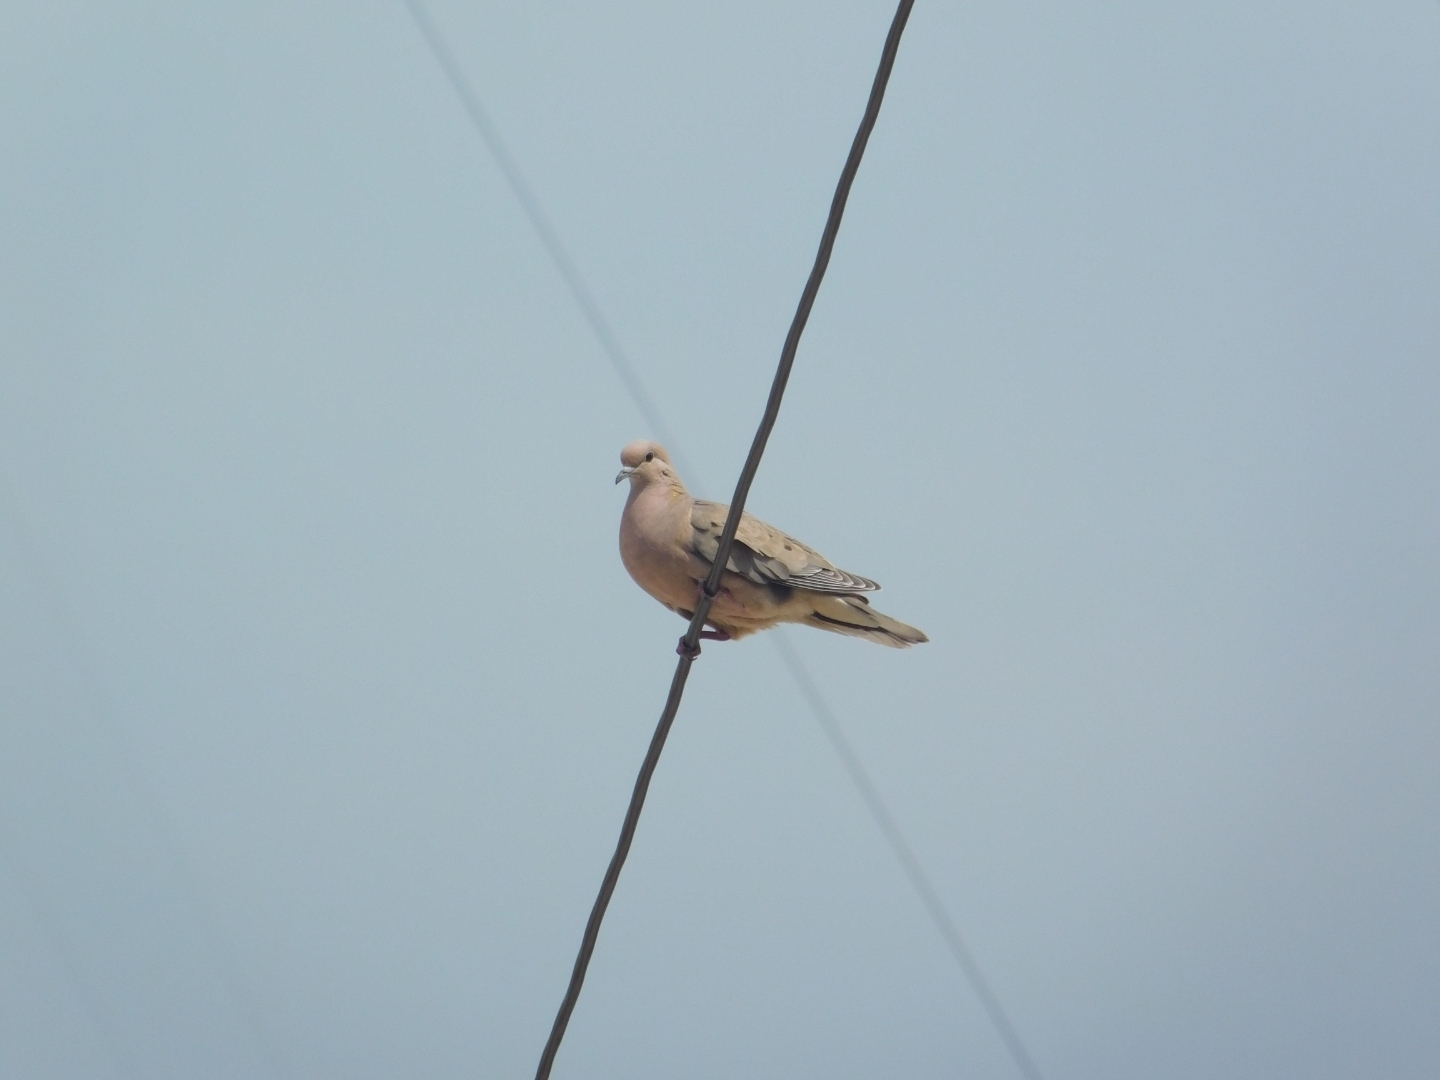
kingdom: Animalia
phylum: Chordata
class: Aves
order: Columbiformes
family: Columbidae
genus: Zenaida
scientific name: Zenaida auriculata
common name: Eared dove
